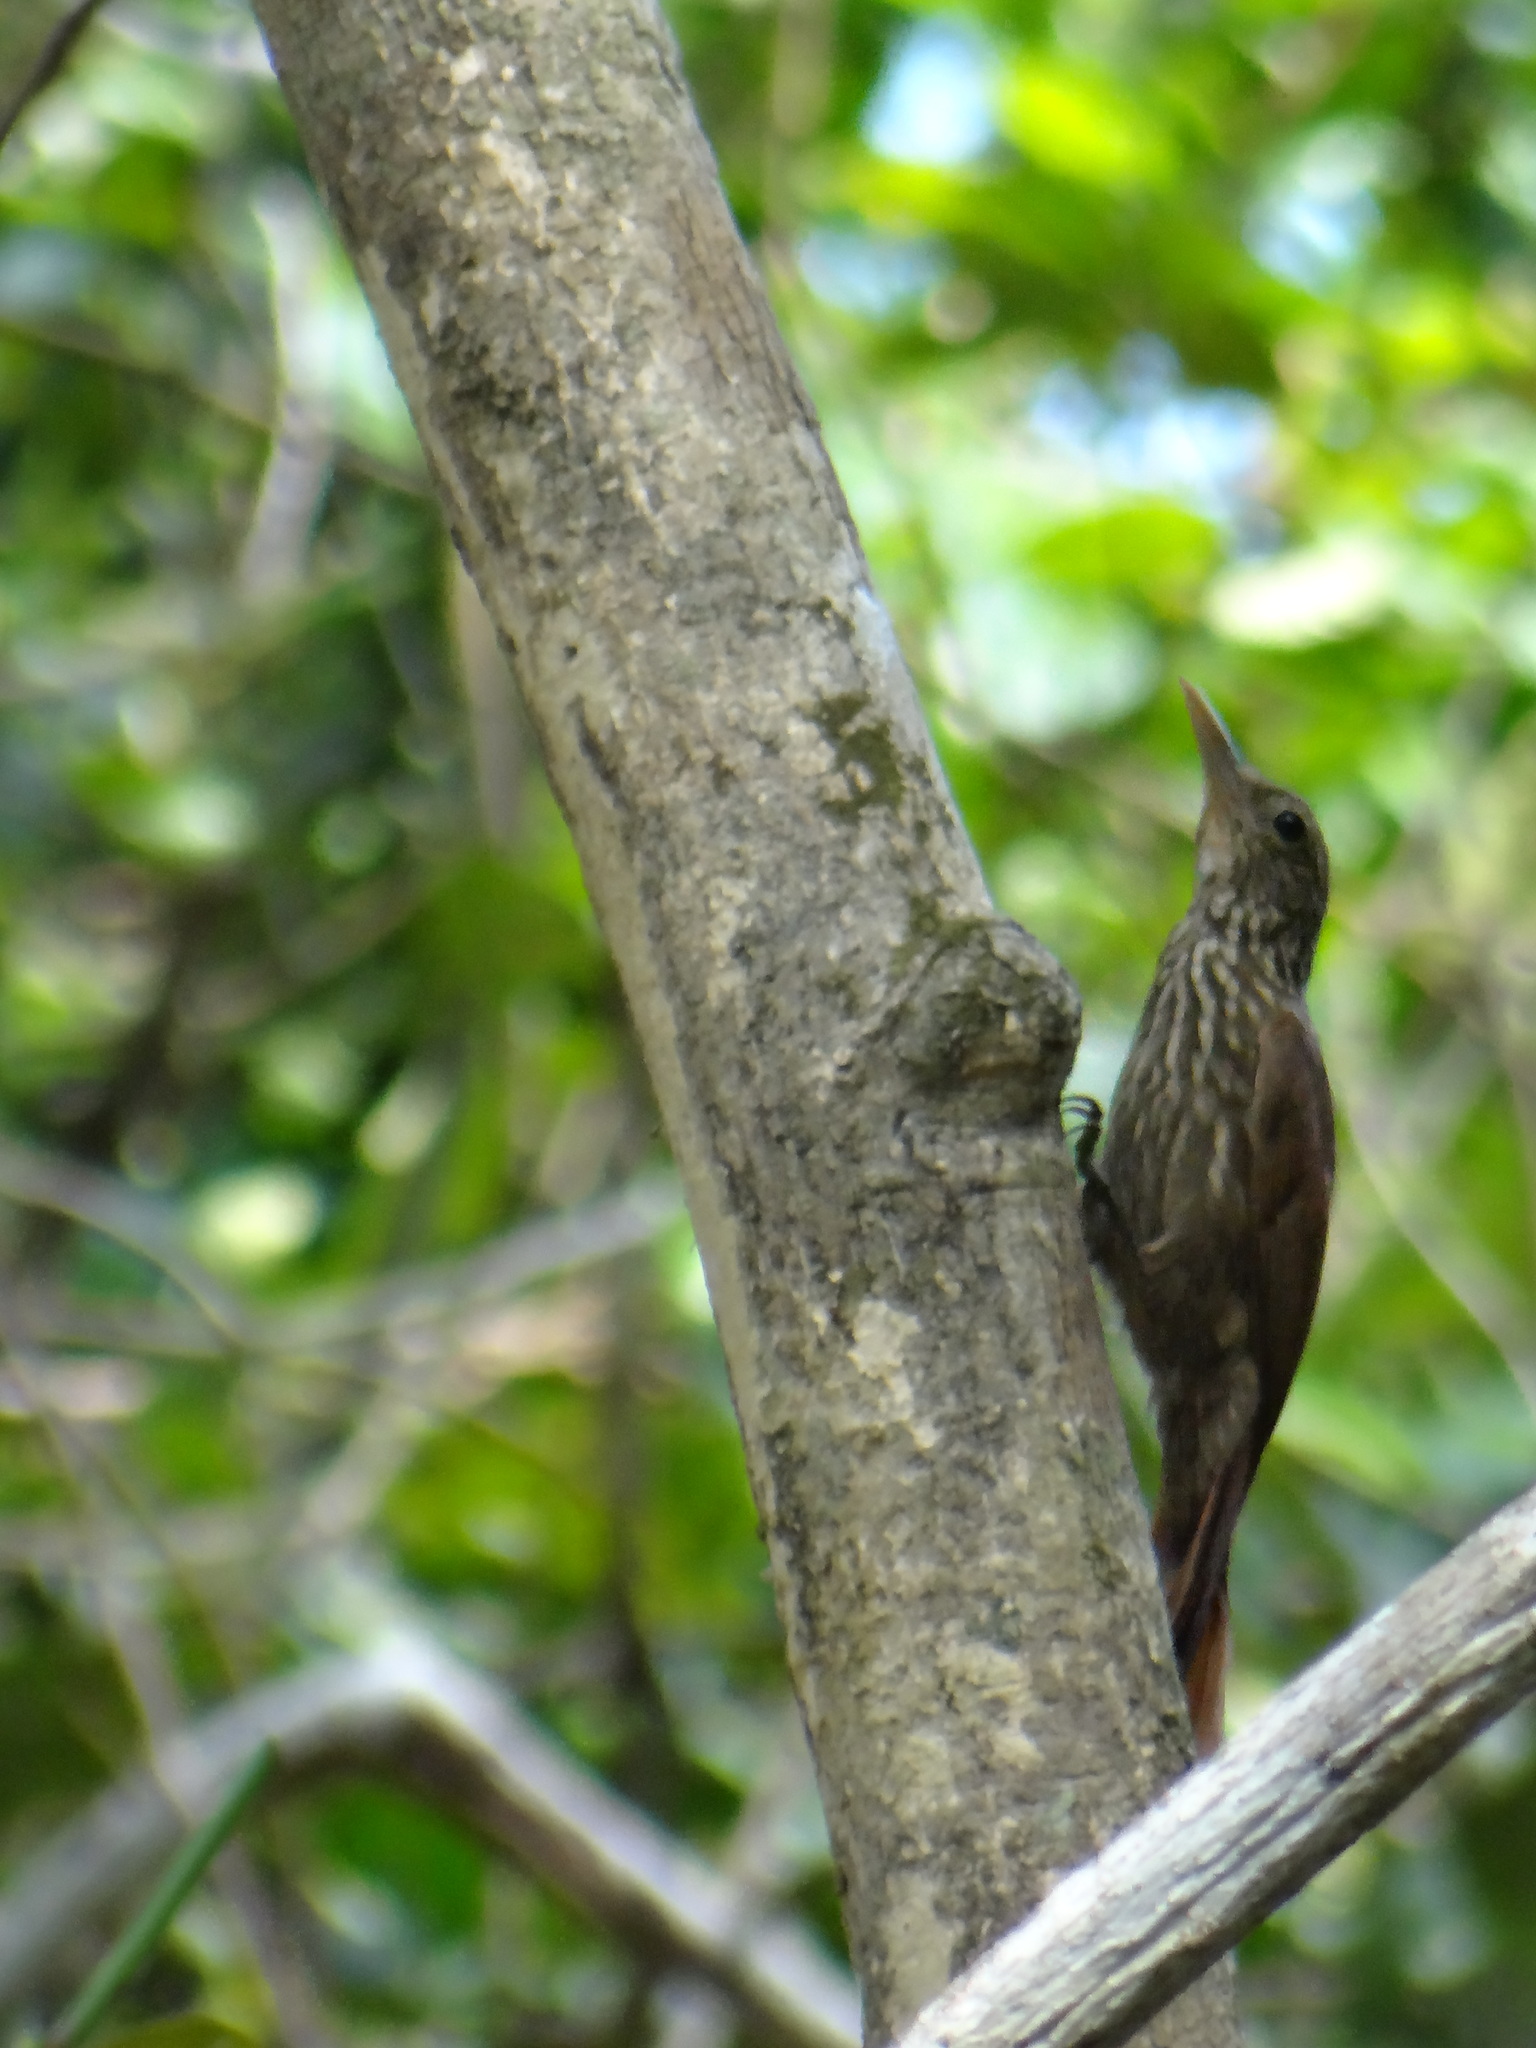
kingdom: Animalia
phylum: Chordata
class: Aves
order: Passeriformes
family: Furnariidae
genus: Xiphorhynchus
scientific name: Xiphorhynchus obsoletus
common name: Striped woodcreeper
